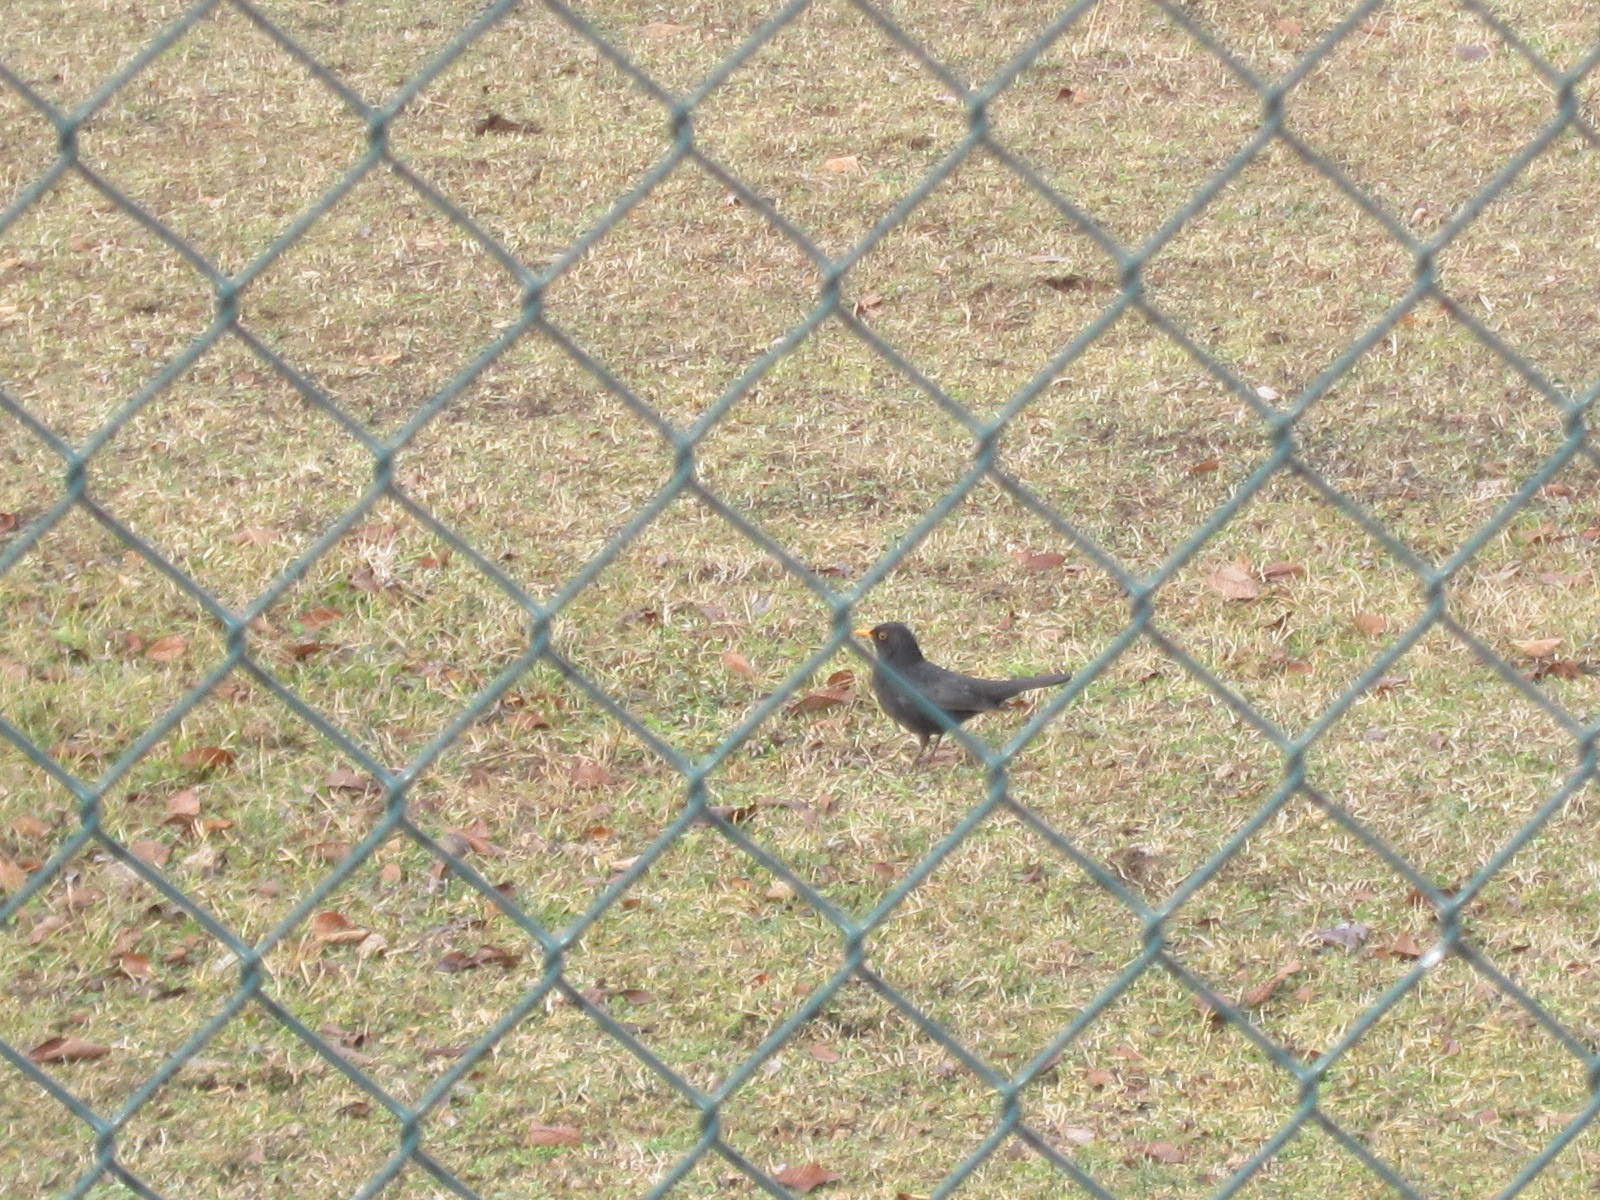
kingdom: Animalia
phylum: Chordata
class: Aves
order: Passeriformes
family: Turdidae
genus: Turdus
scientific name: Turdus merula
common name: Common blackbird
